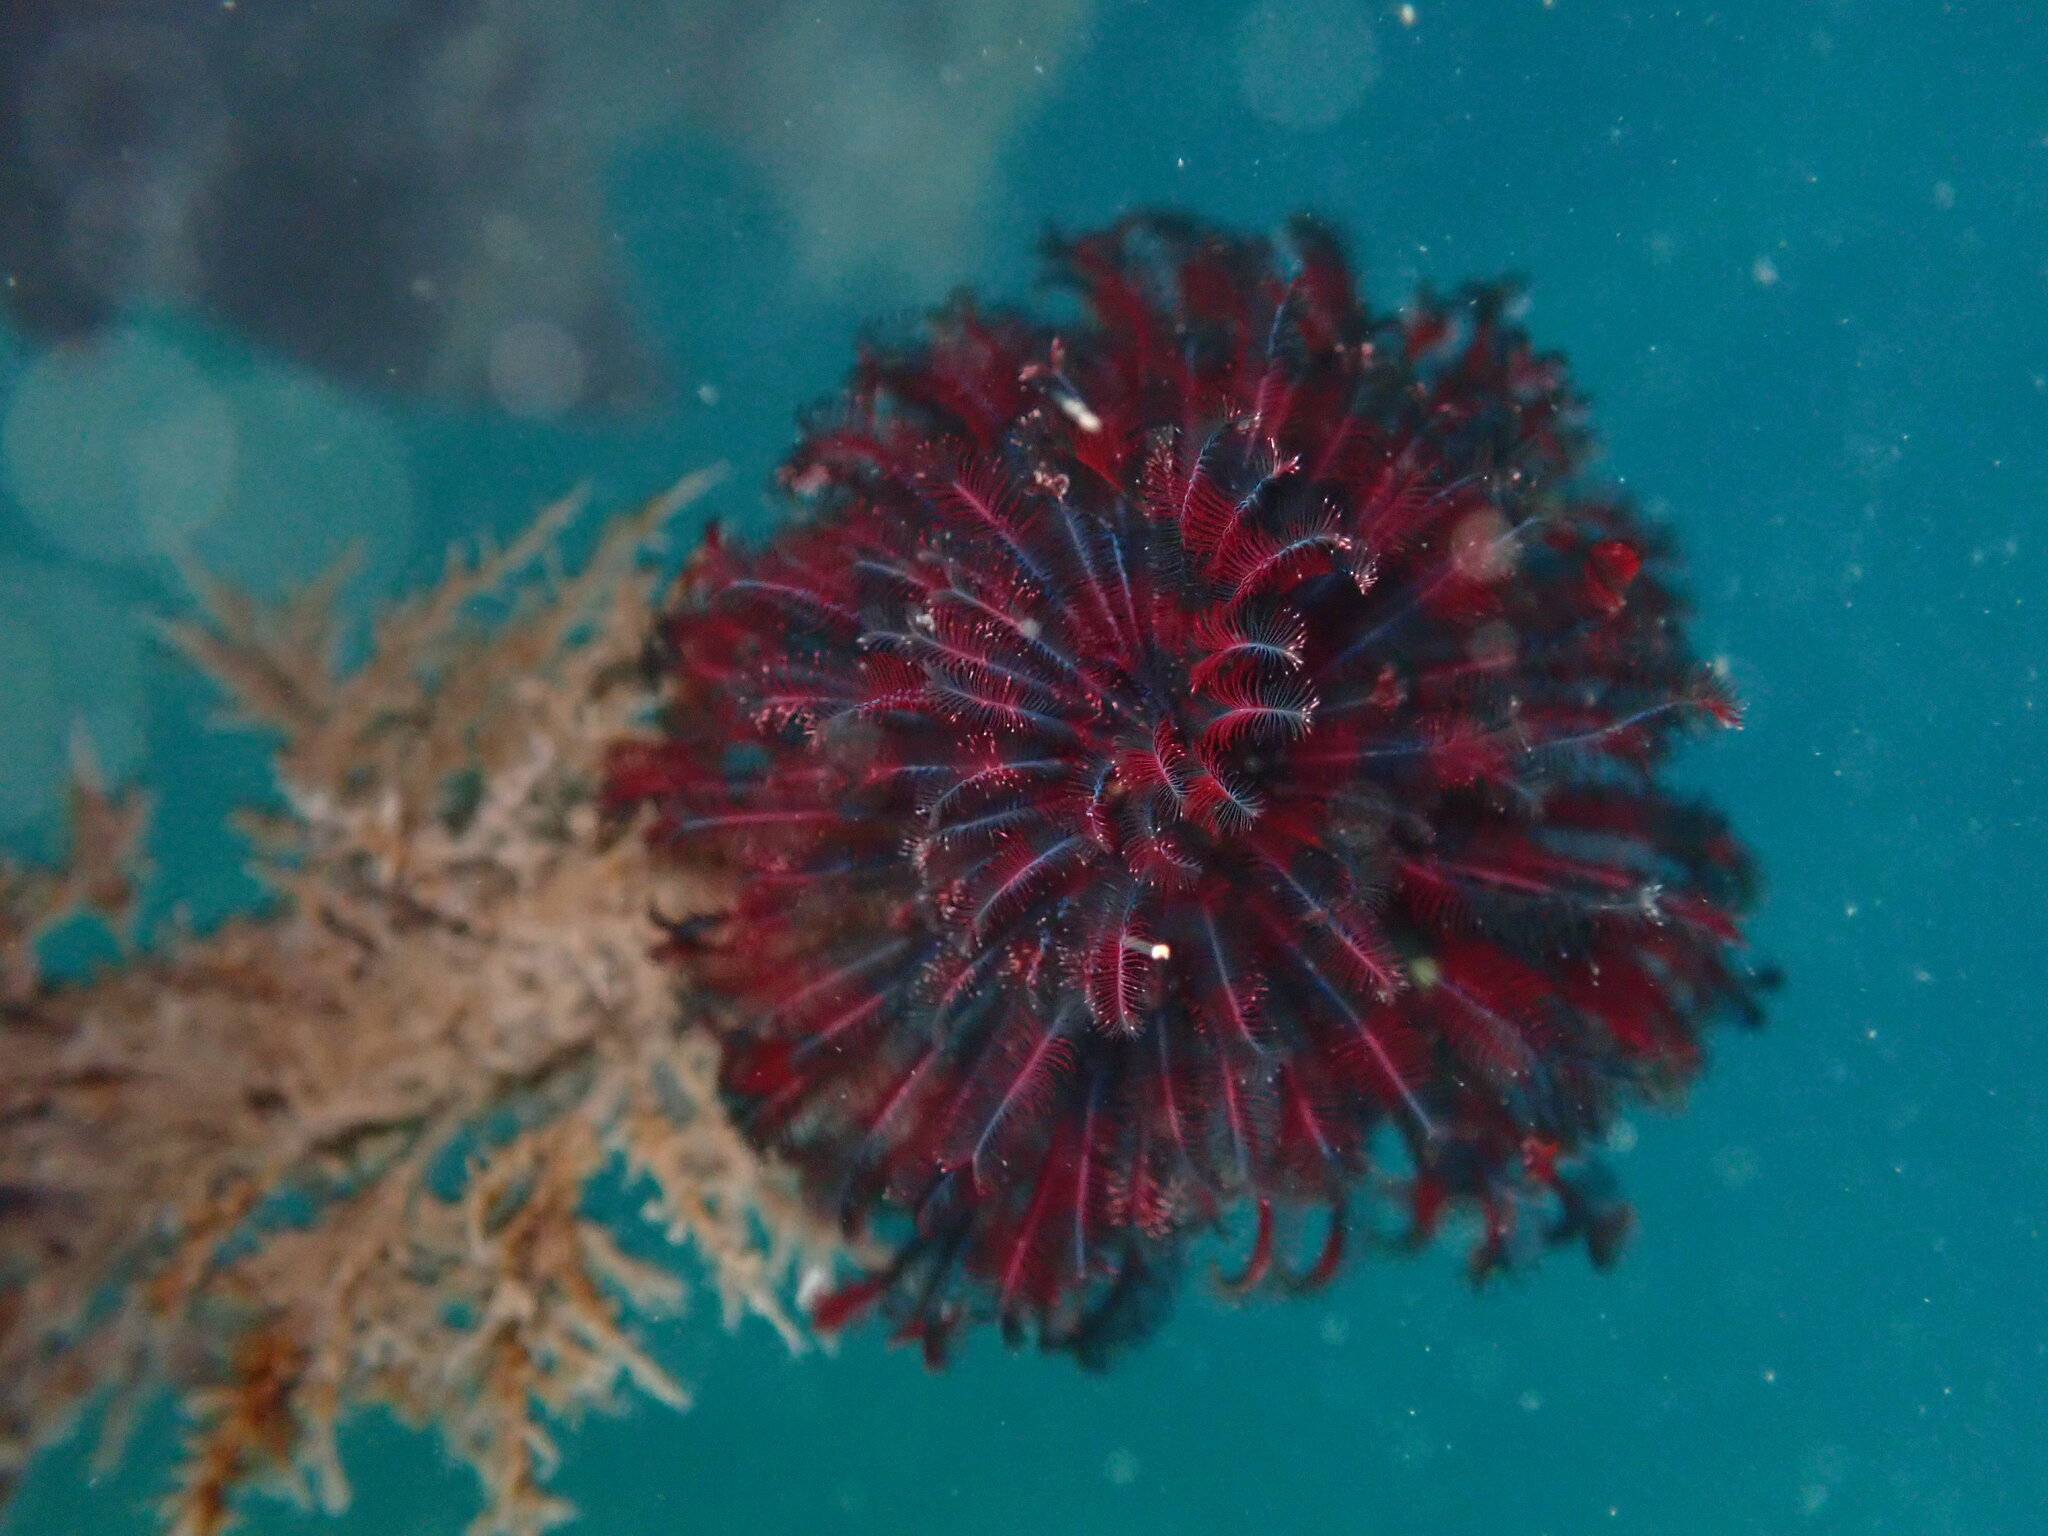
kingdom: Animalia
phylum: Annelida
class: Polychaeta
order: Sabellida
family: Sabellidae
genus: Eudistylia
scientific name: Eudistylia vancouveri
